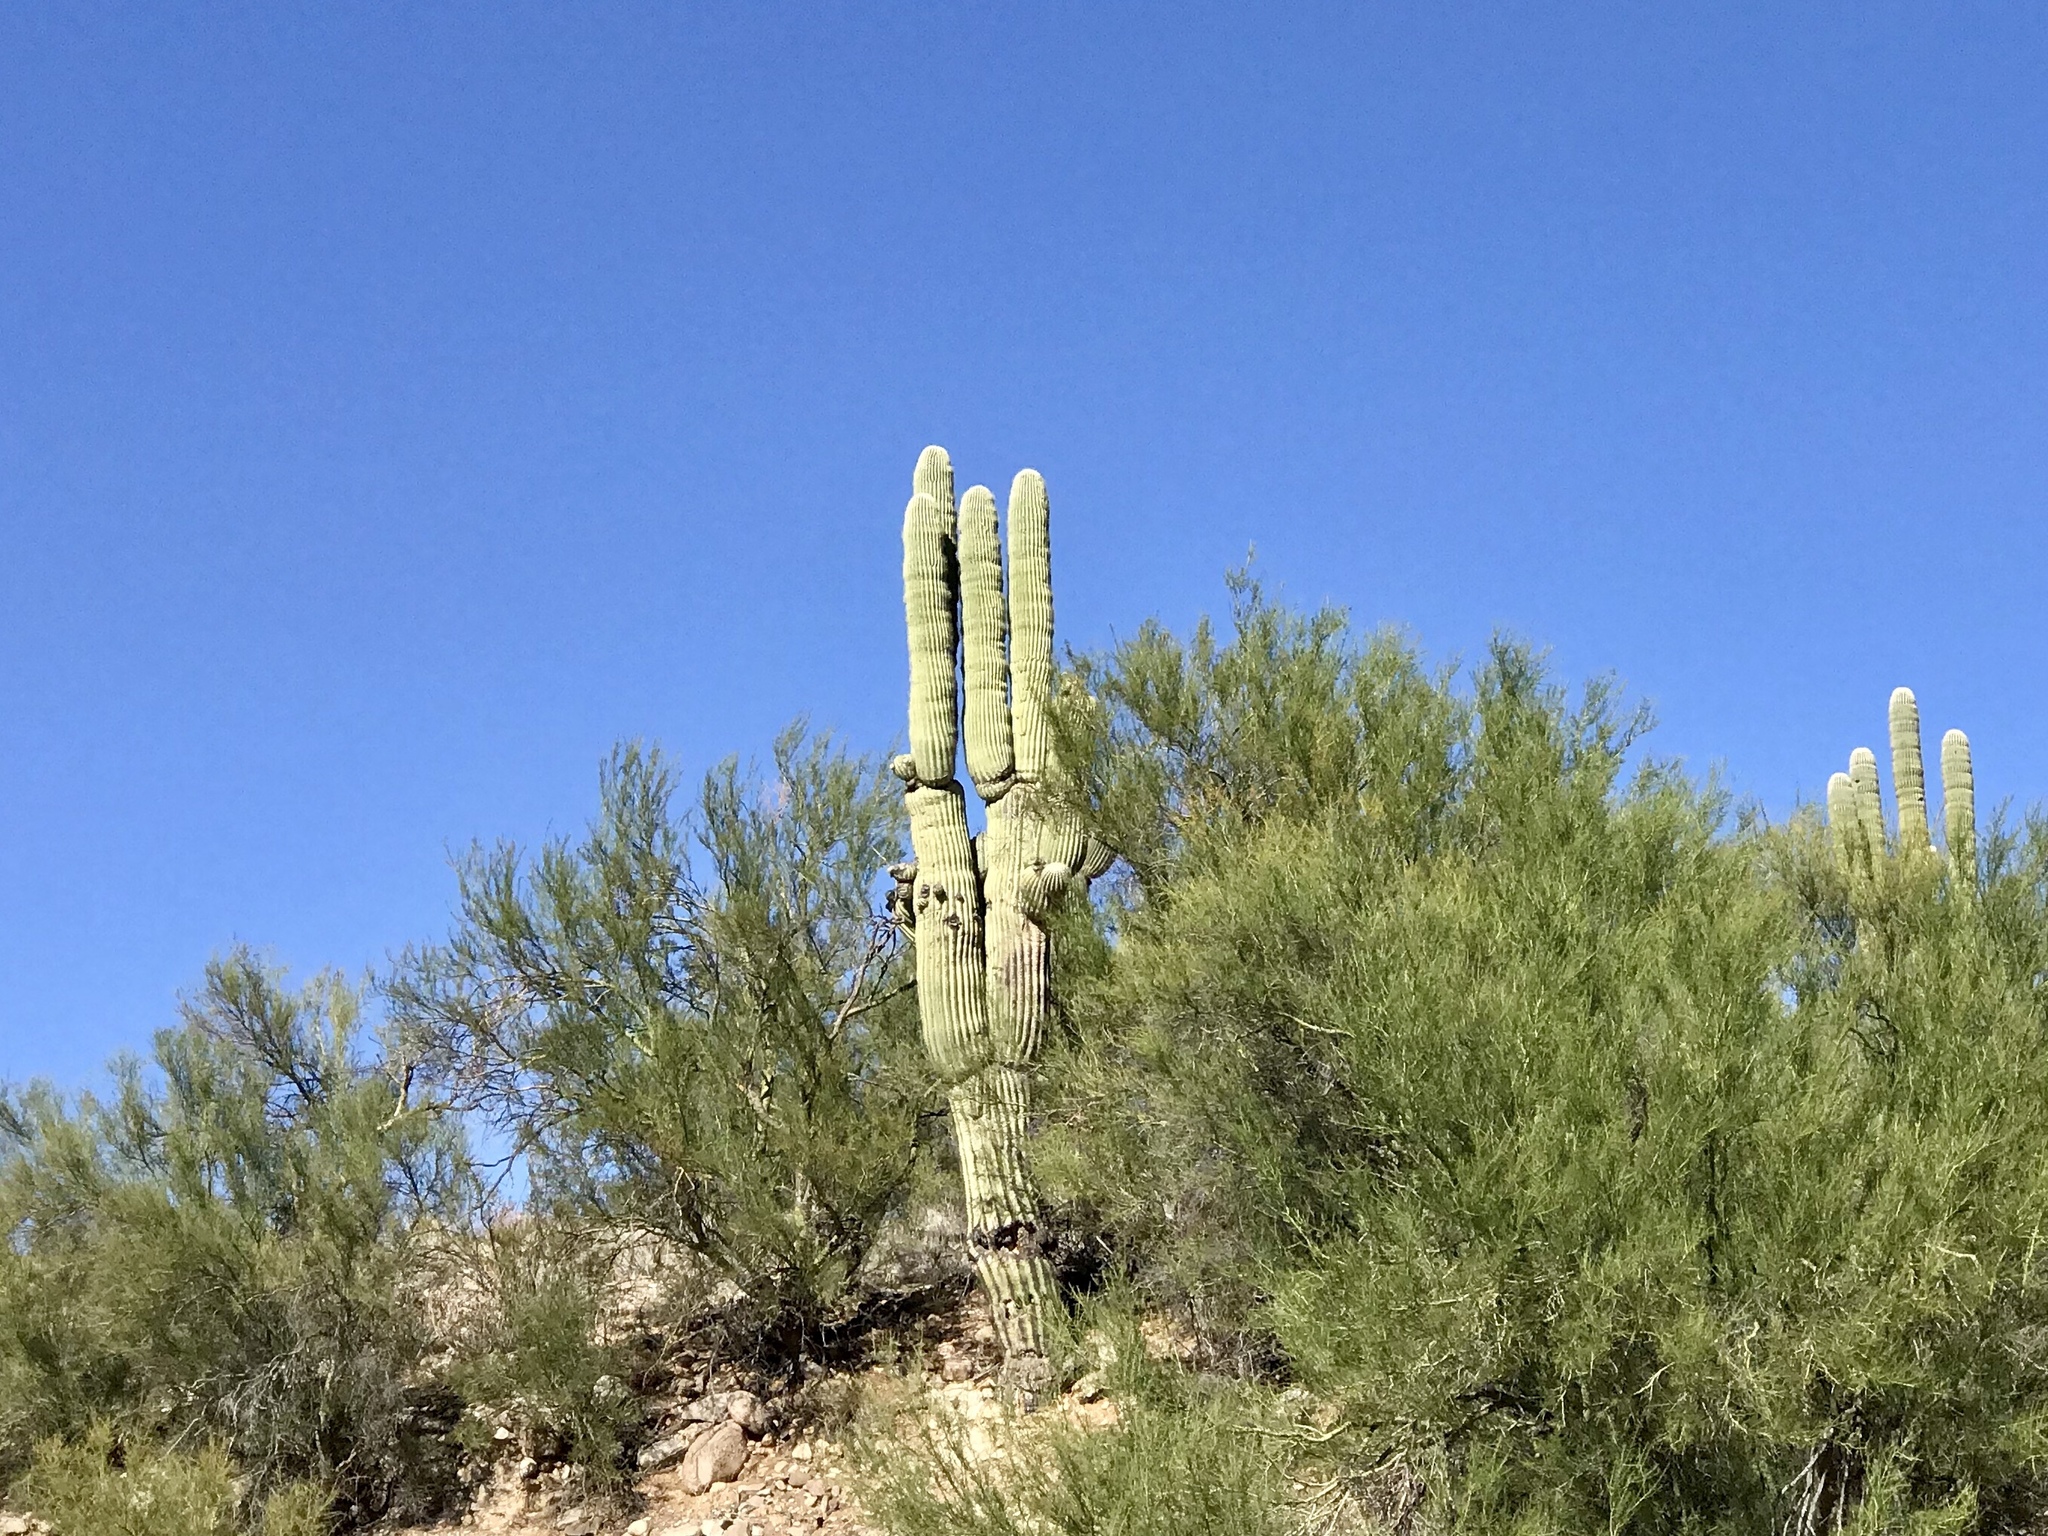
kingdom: Plantae
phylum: Tracheophyta
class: Magnoliopsida
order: Caryophyllales
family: Cactaceae
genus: Carnegiea
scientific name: Carnegiea gigantea
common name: Saguaro
